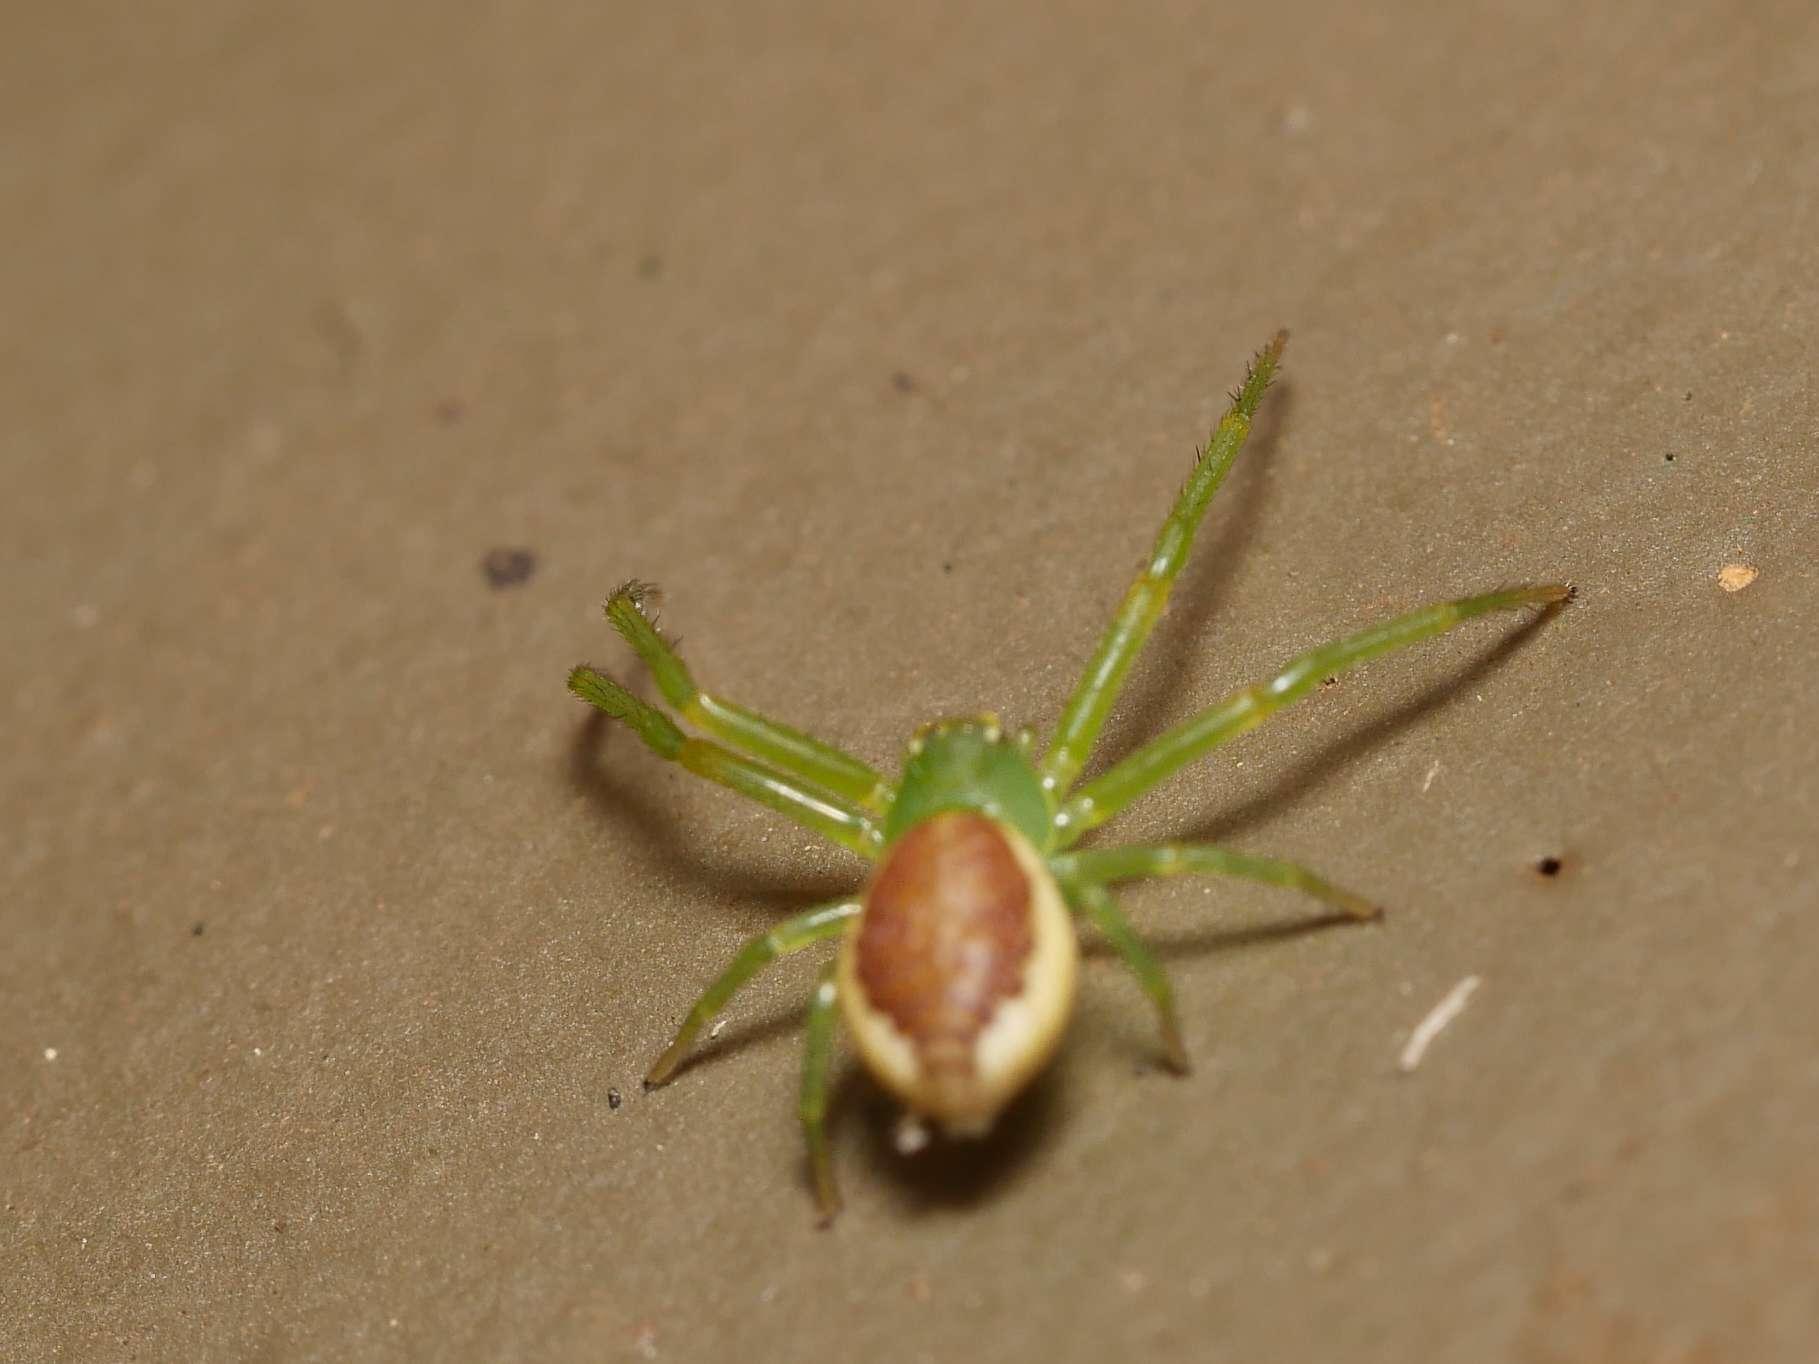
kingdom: Animalia
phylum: Arthropoda
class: Arachnida
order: Araneae
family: Thomisidae
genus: Diaea
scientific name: Diaea dorsata
